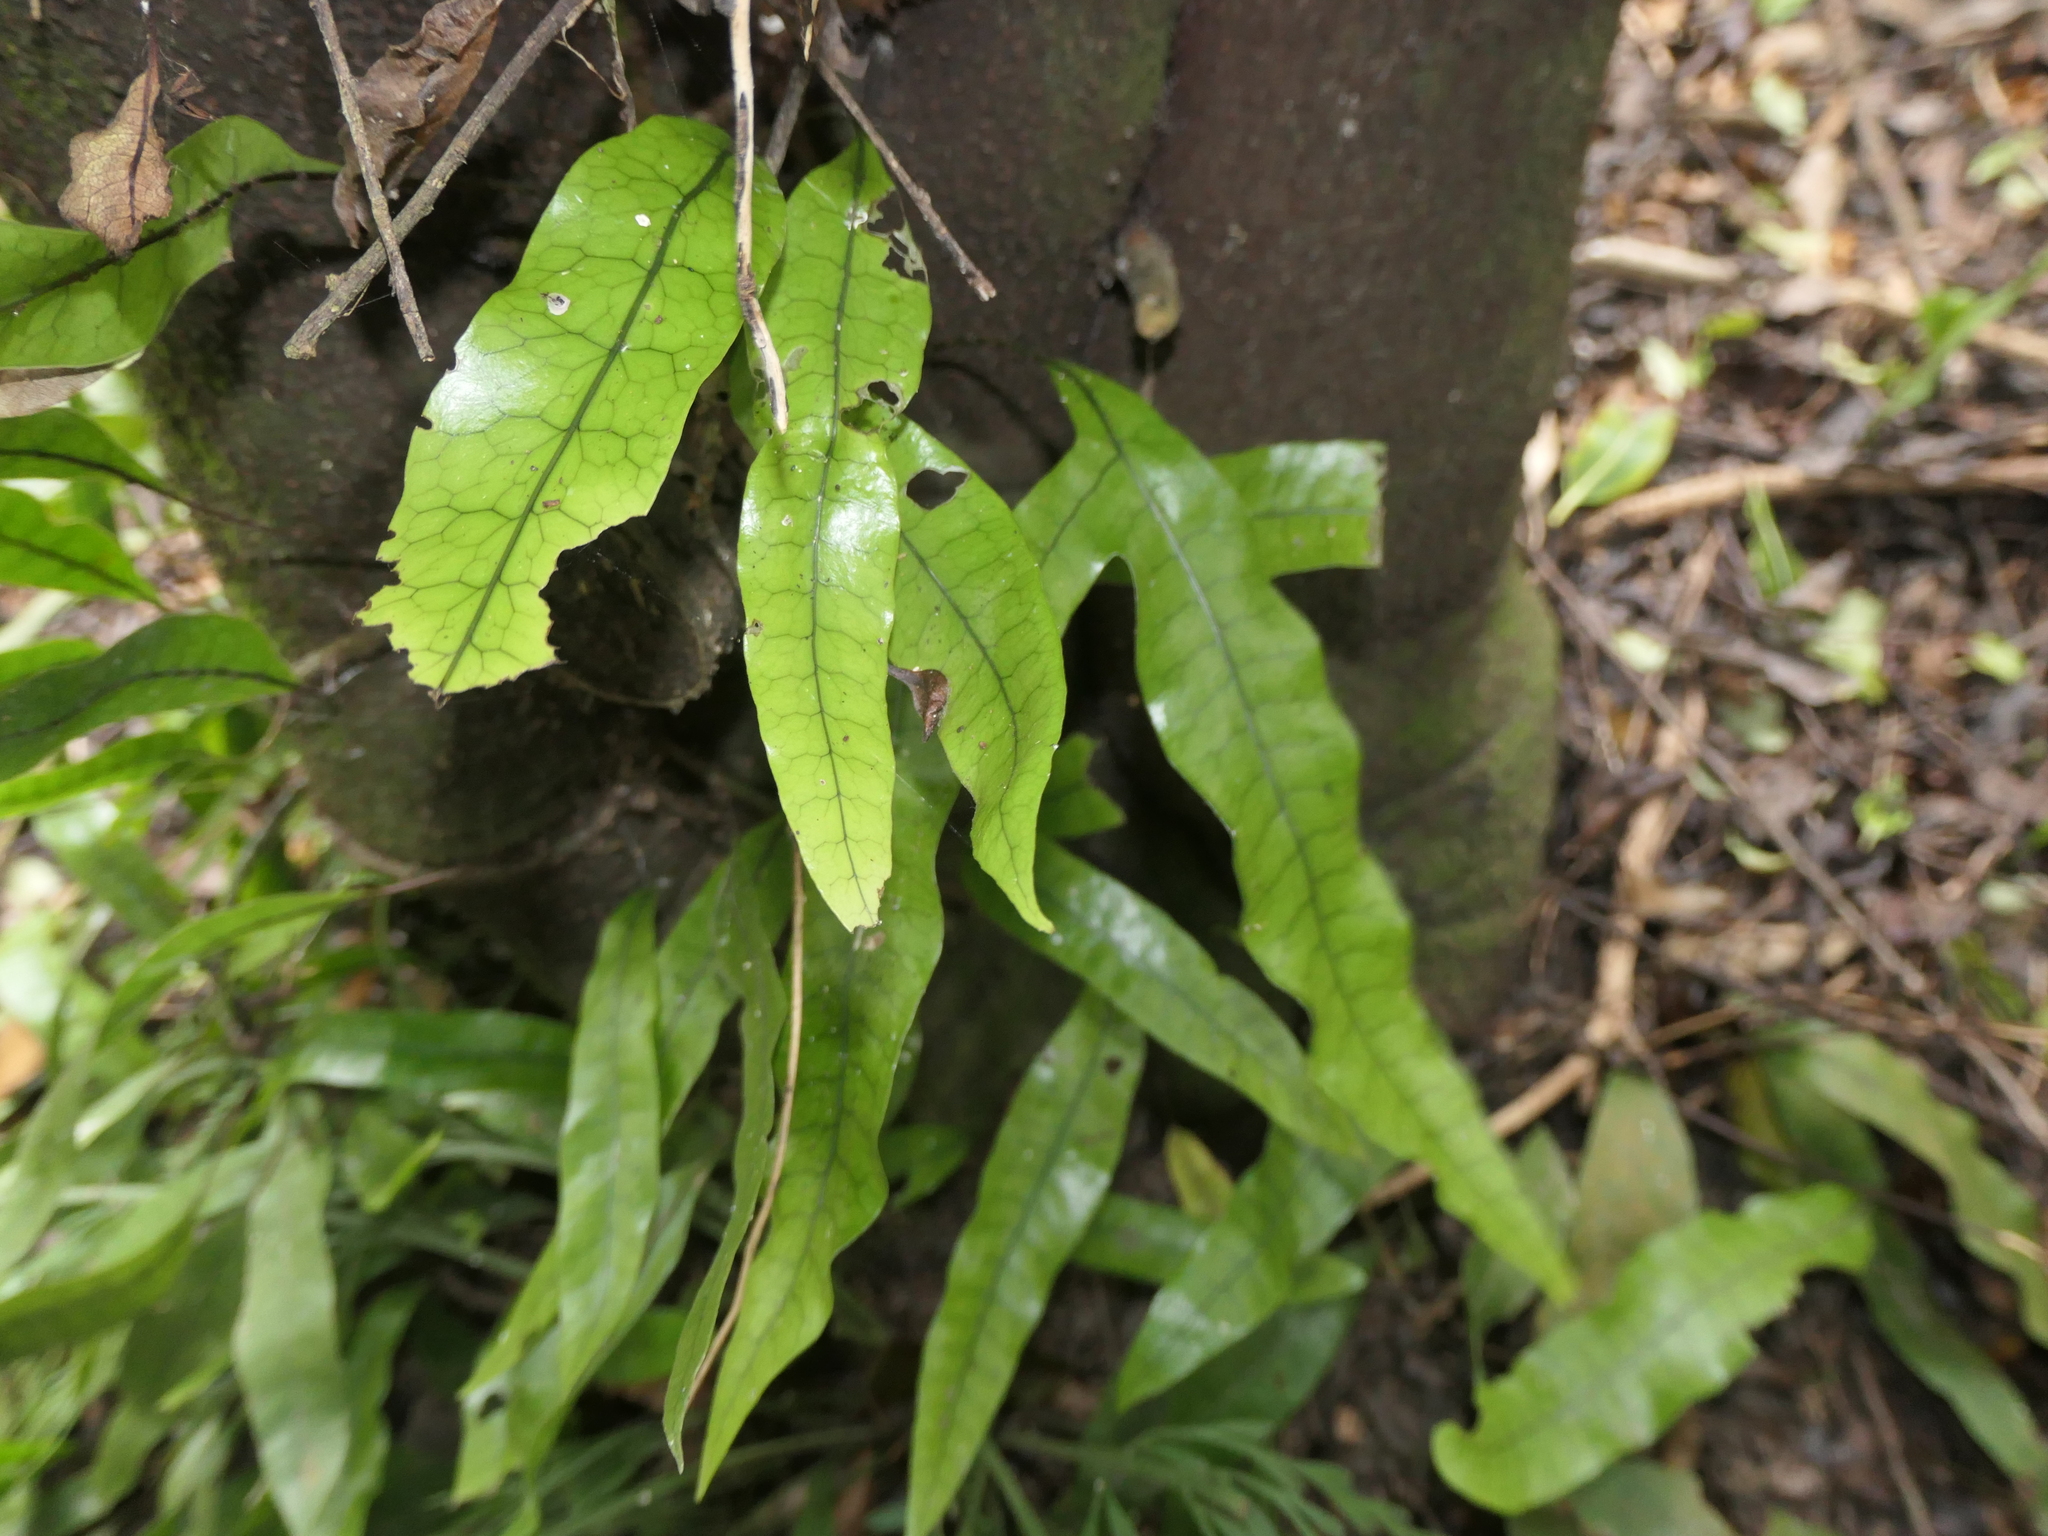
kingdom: Plantae
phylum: Tracheophyta
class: Polypodiopsida
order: Polypodiales
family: Polypodiaceae
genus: Lecanopteris
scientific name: Lecanopteris pustulata
